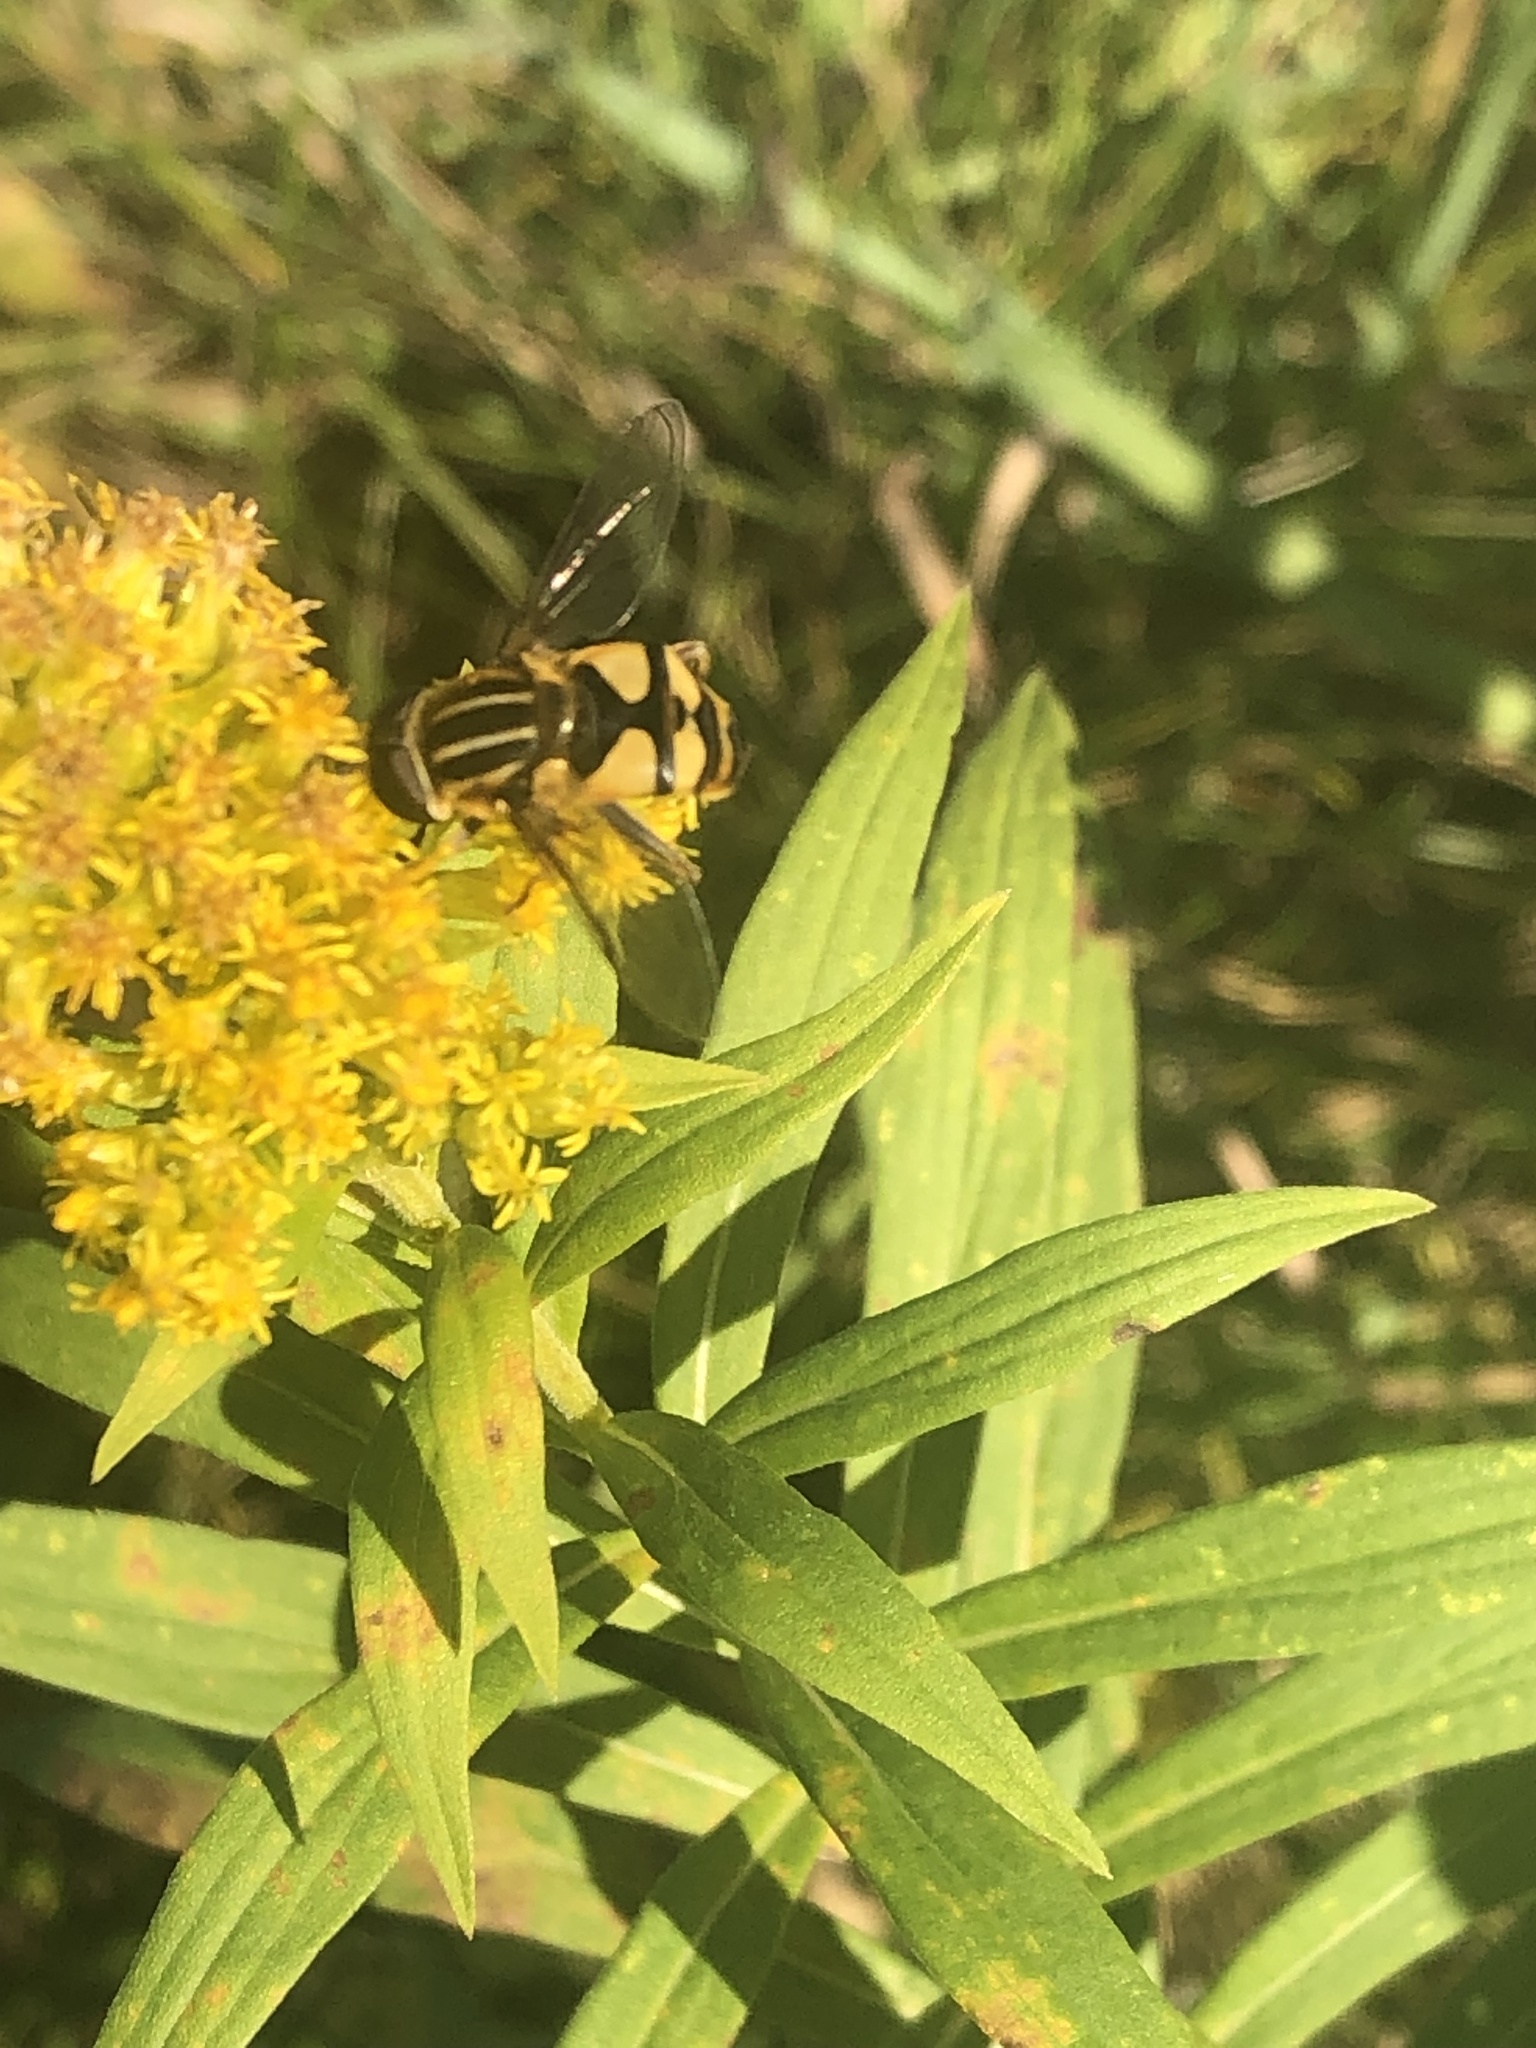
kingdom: Animalia
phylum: Arthropoda
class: Insecta
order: Diptera
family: Syrphidae
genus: Helophilus
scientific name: Helophilus fasciatus
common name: Narrow-headed marsh fly
